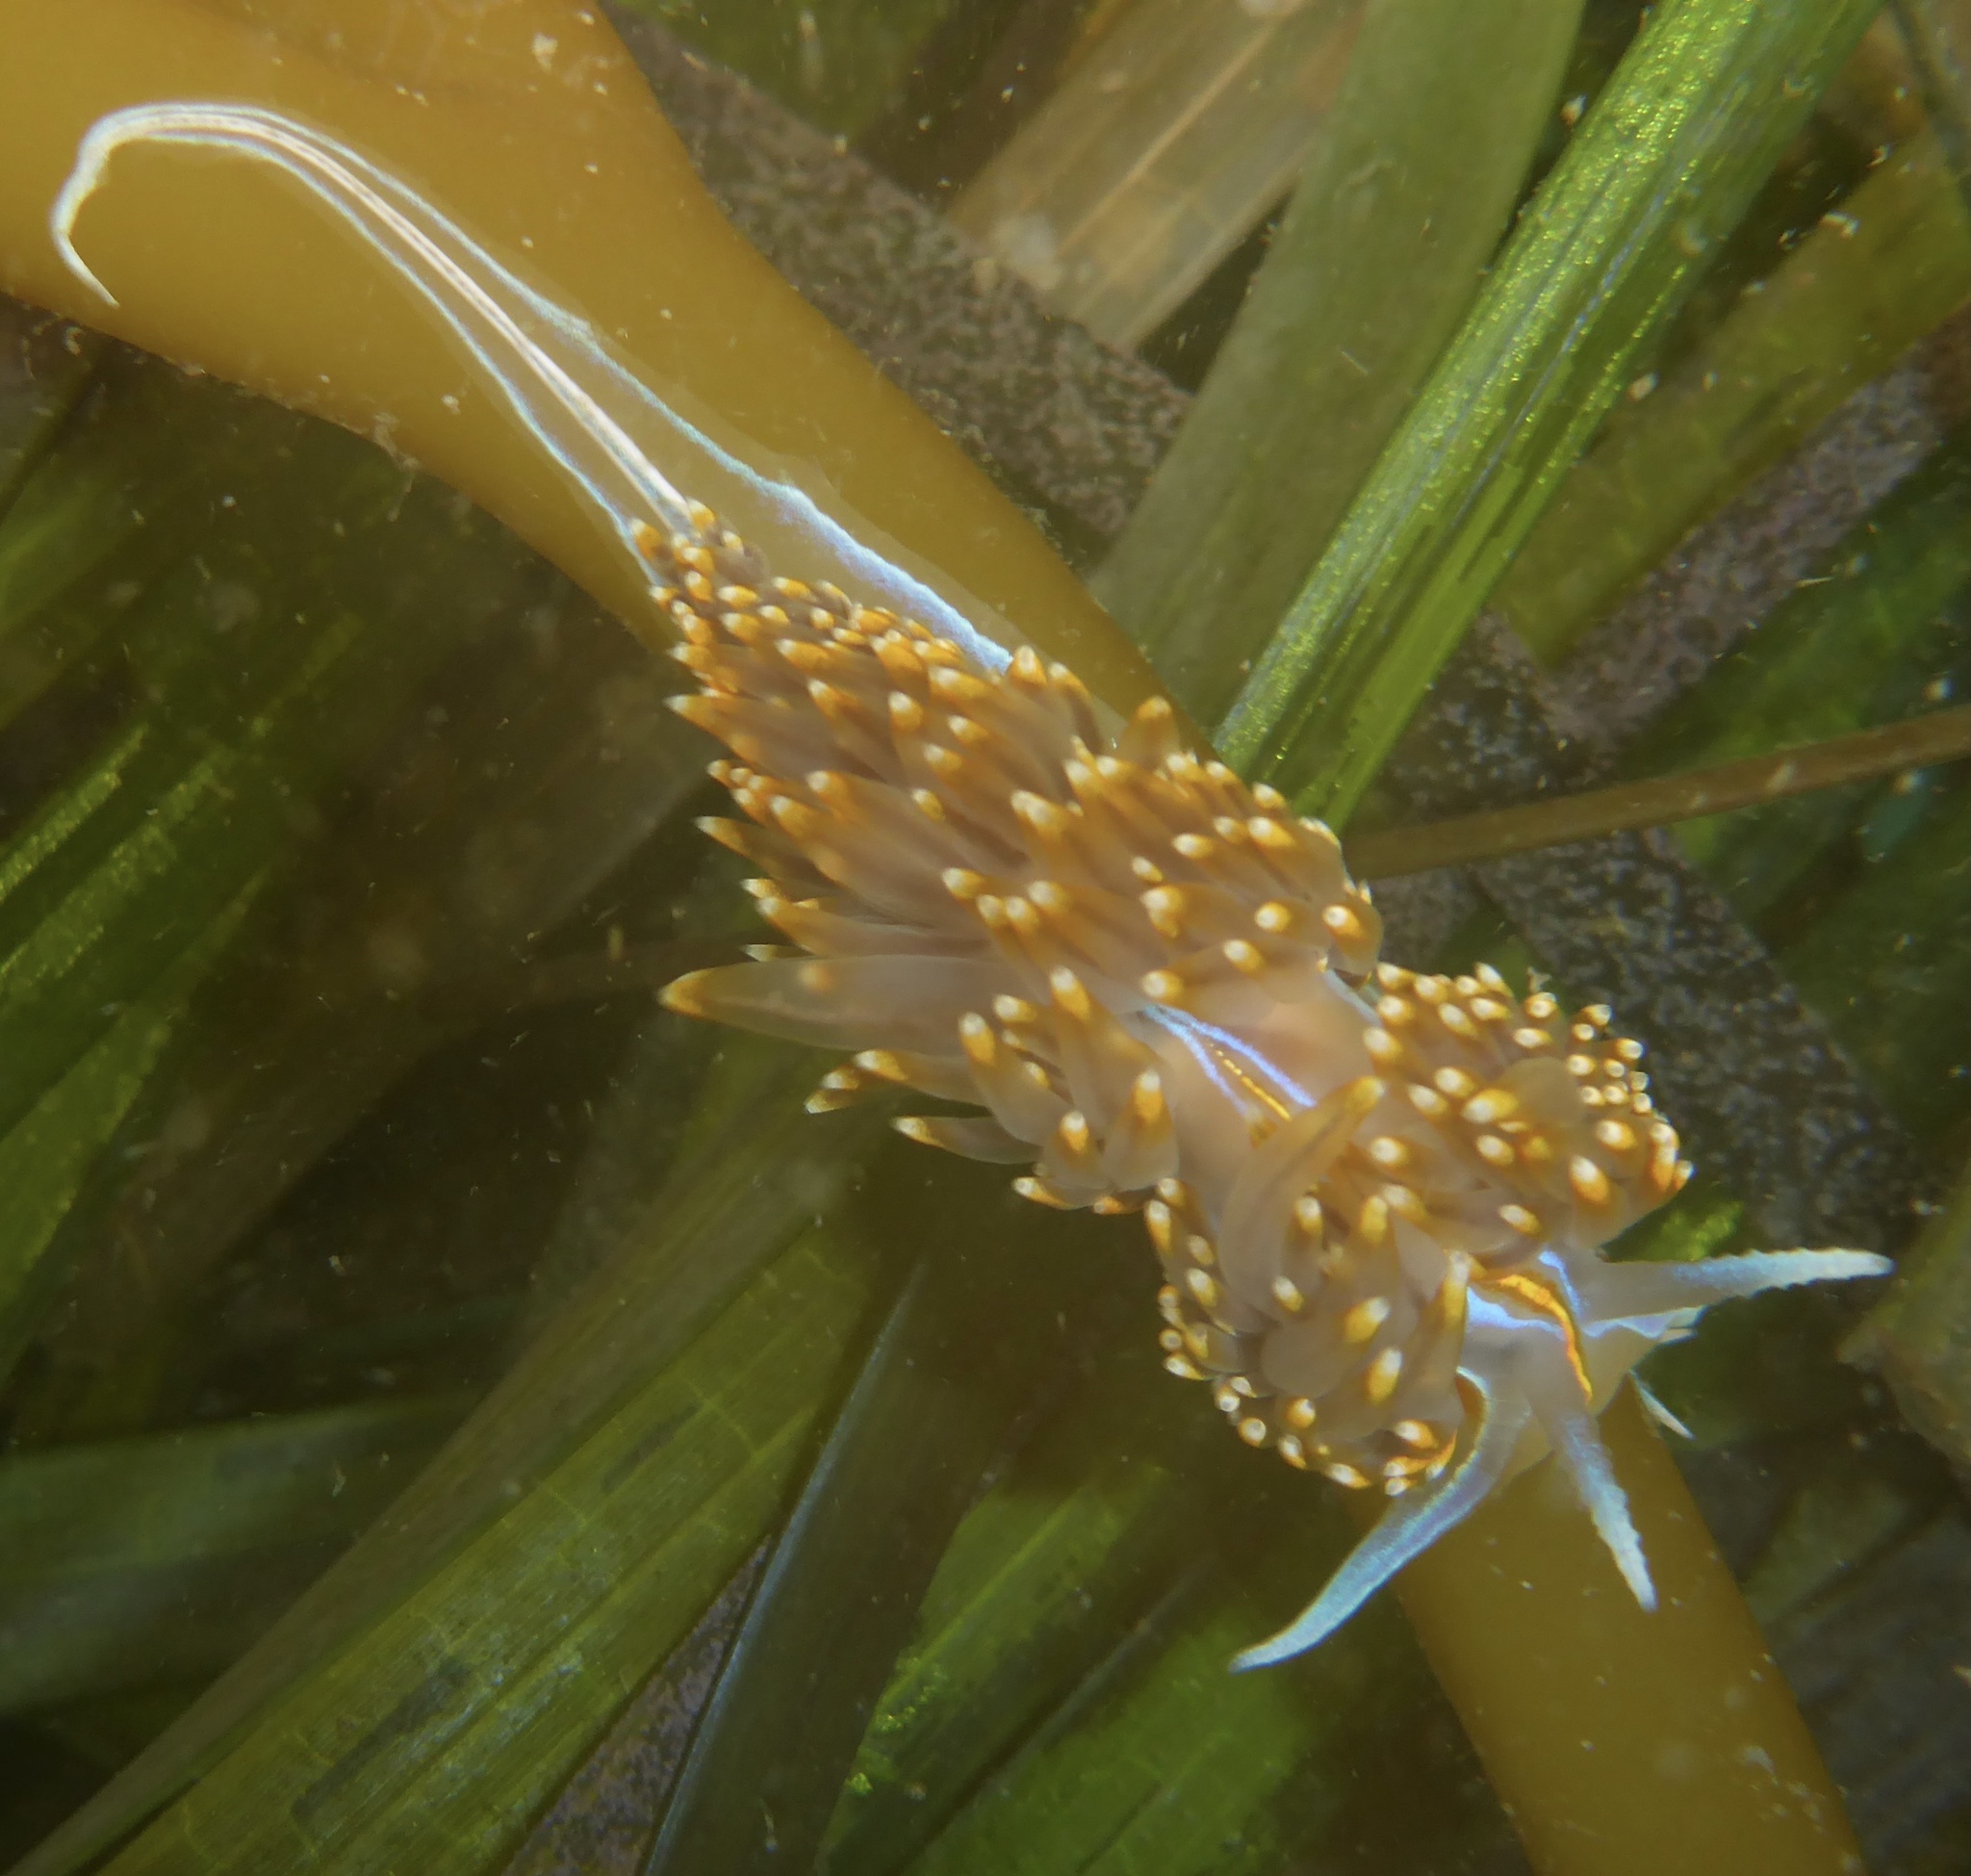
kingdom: Animalia
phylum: Mollusca
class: Gastropoda
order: Nudibranchia
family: Myrrhinidae
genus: Hermissenda
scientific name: Hermissenda opalescens
